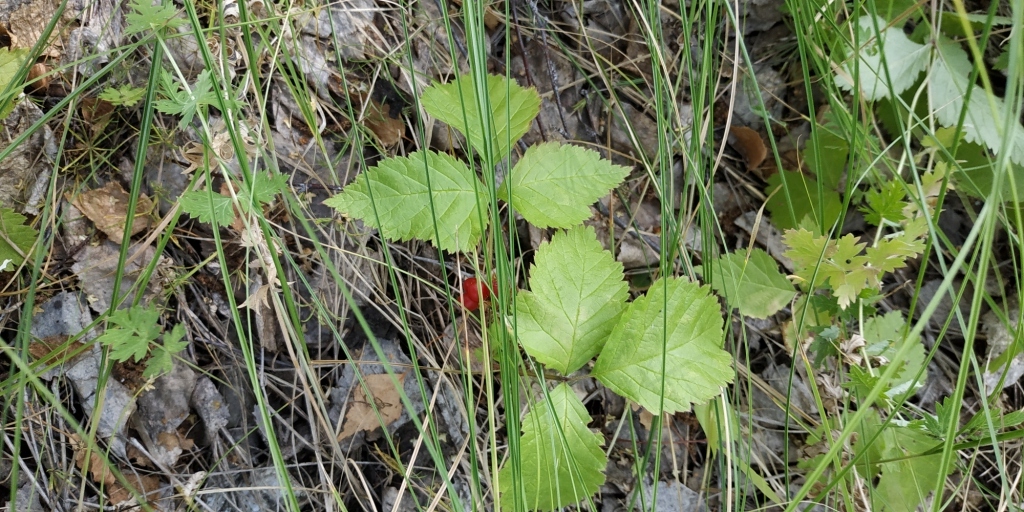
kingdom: Plantae
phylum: Tracheophyta
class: Magnoliopsida
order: Rosales
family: Rosaceae
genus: Rubus
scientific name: Rubus saxatilis
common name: Stone bramble
